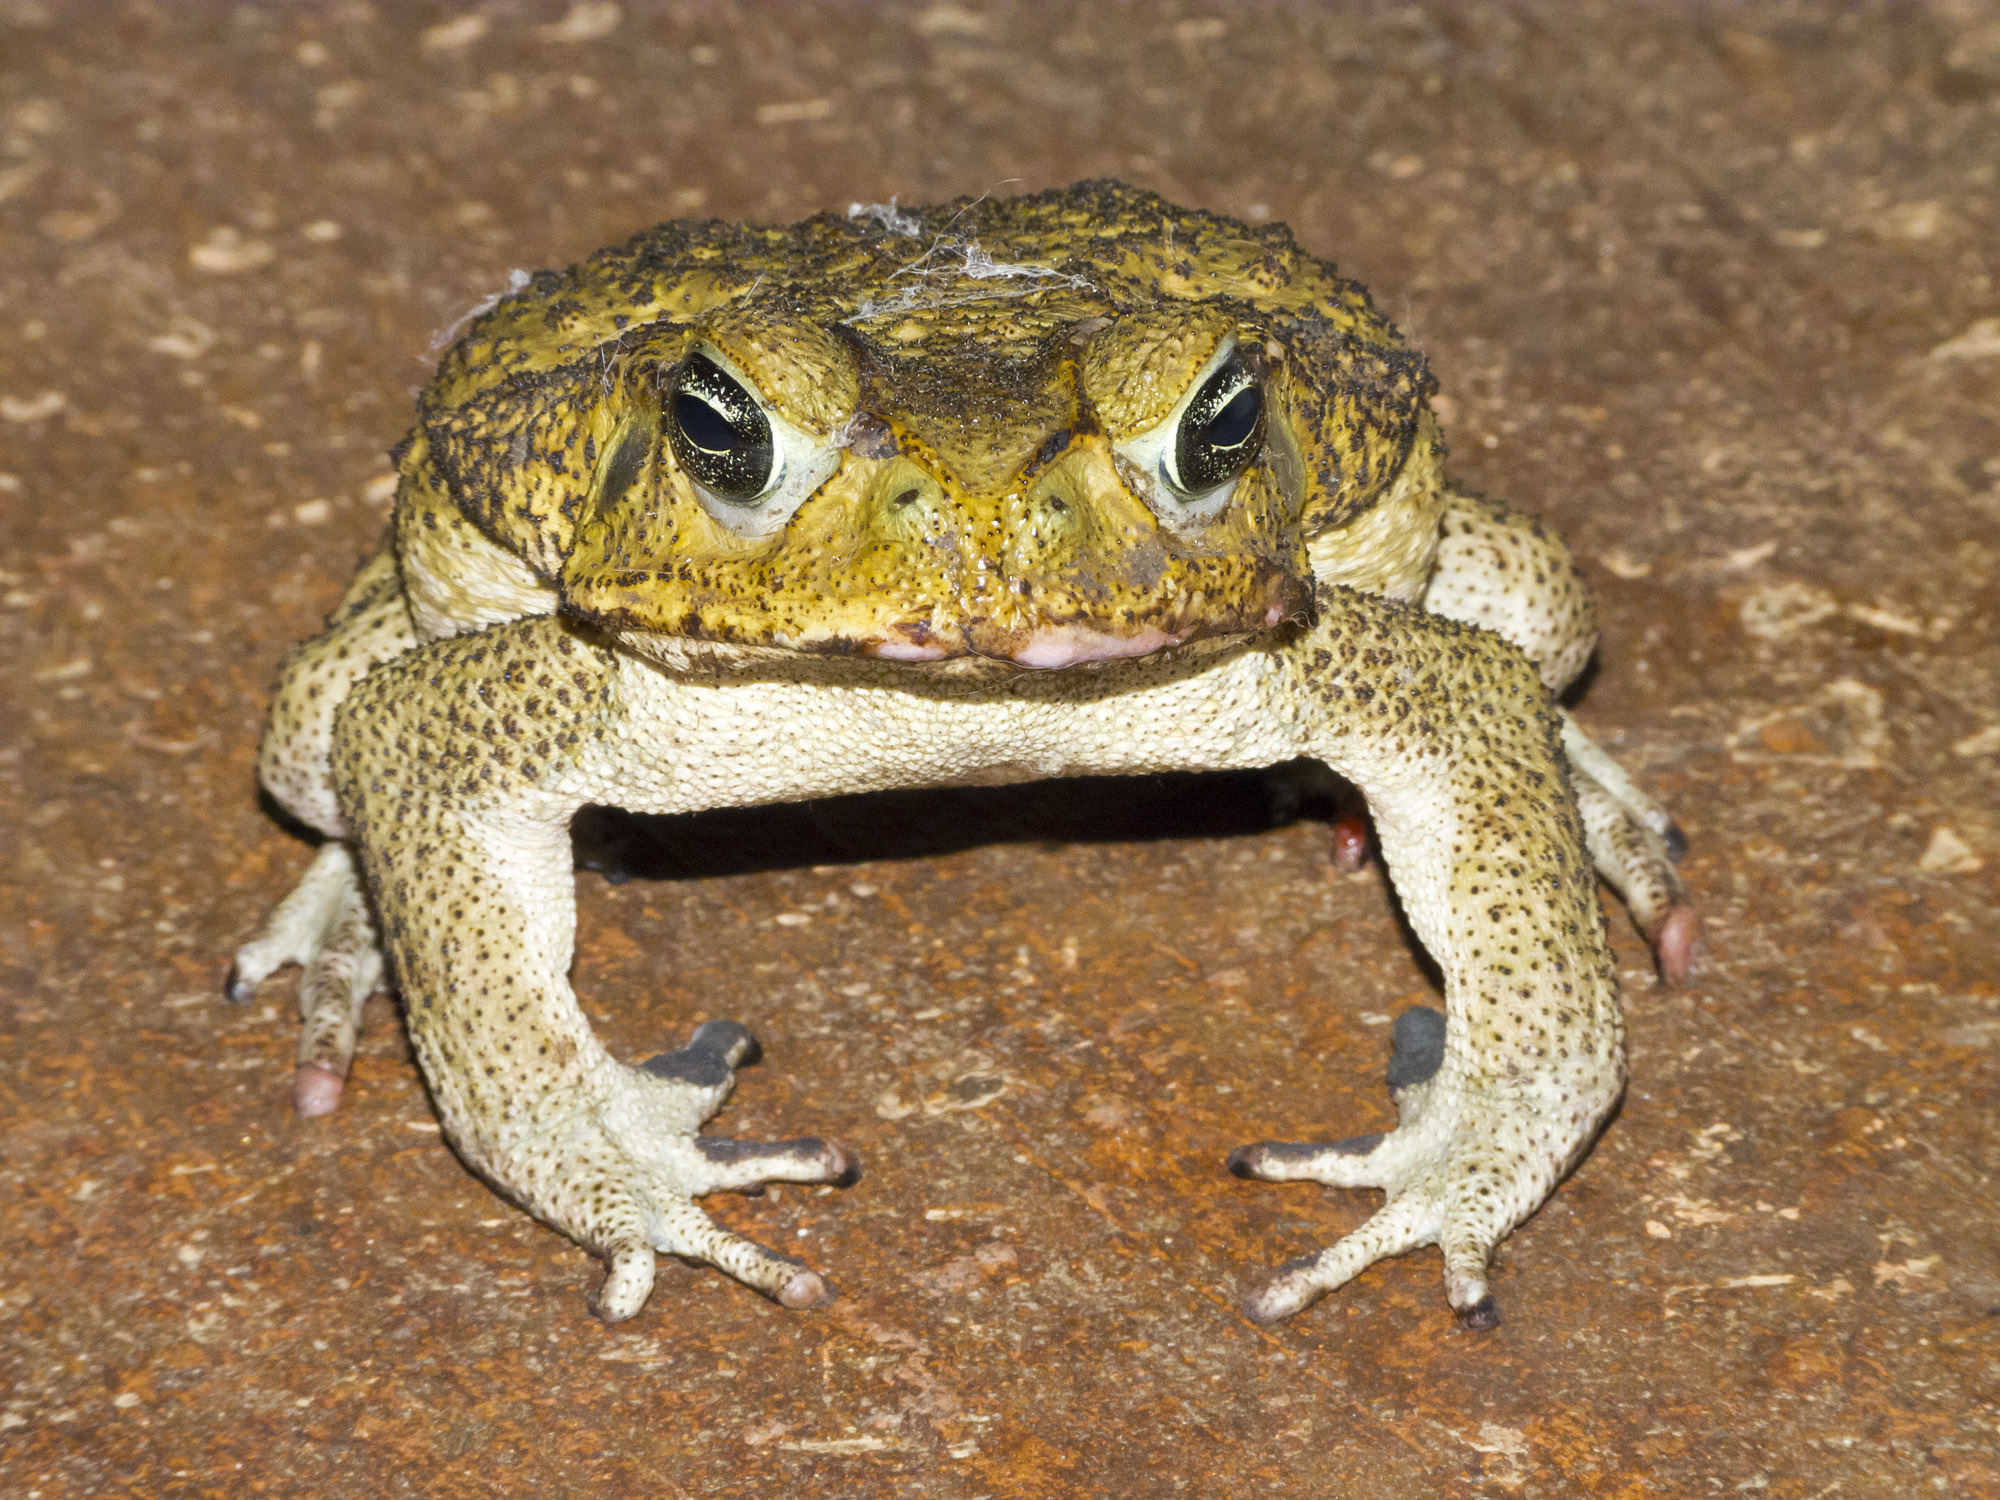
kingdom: Animalia
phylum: Chordata
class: Amphibia
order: Anura
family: Bufonidae
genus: Rhinella
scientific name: Rhinella horribilis
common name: Mesoamerican cane toad
